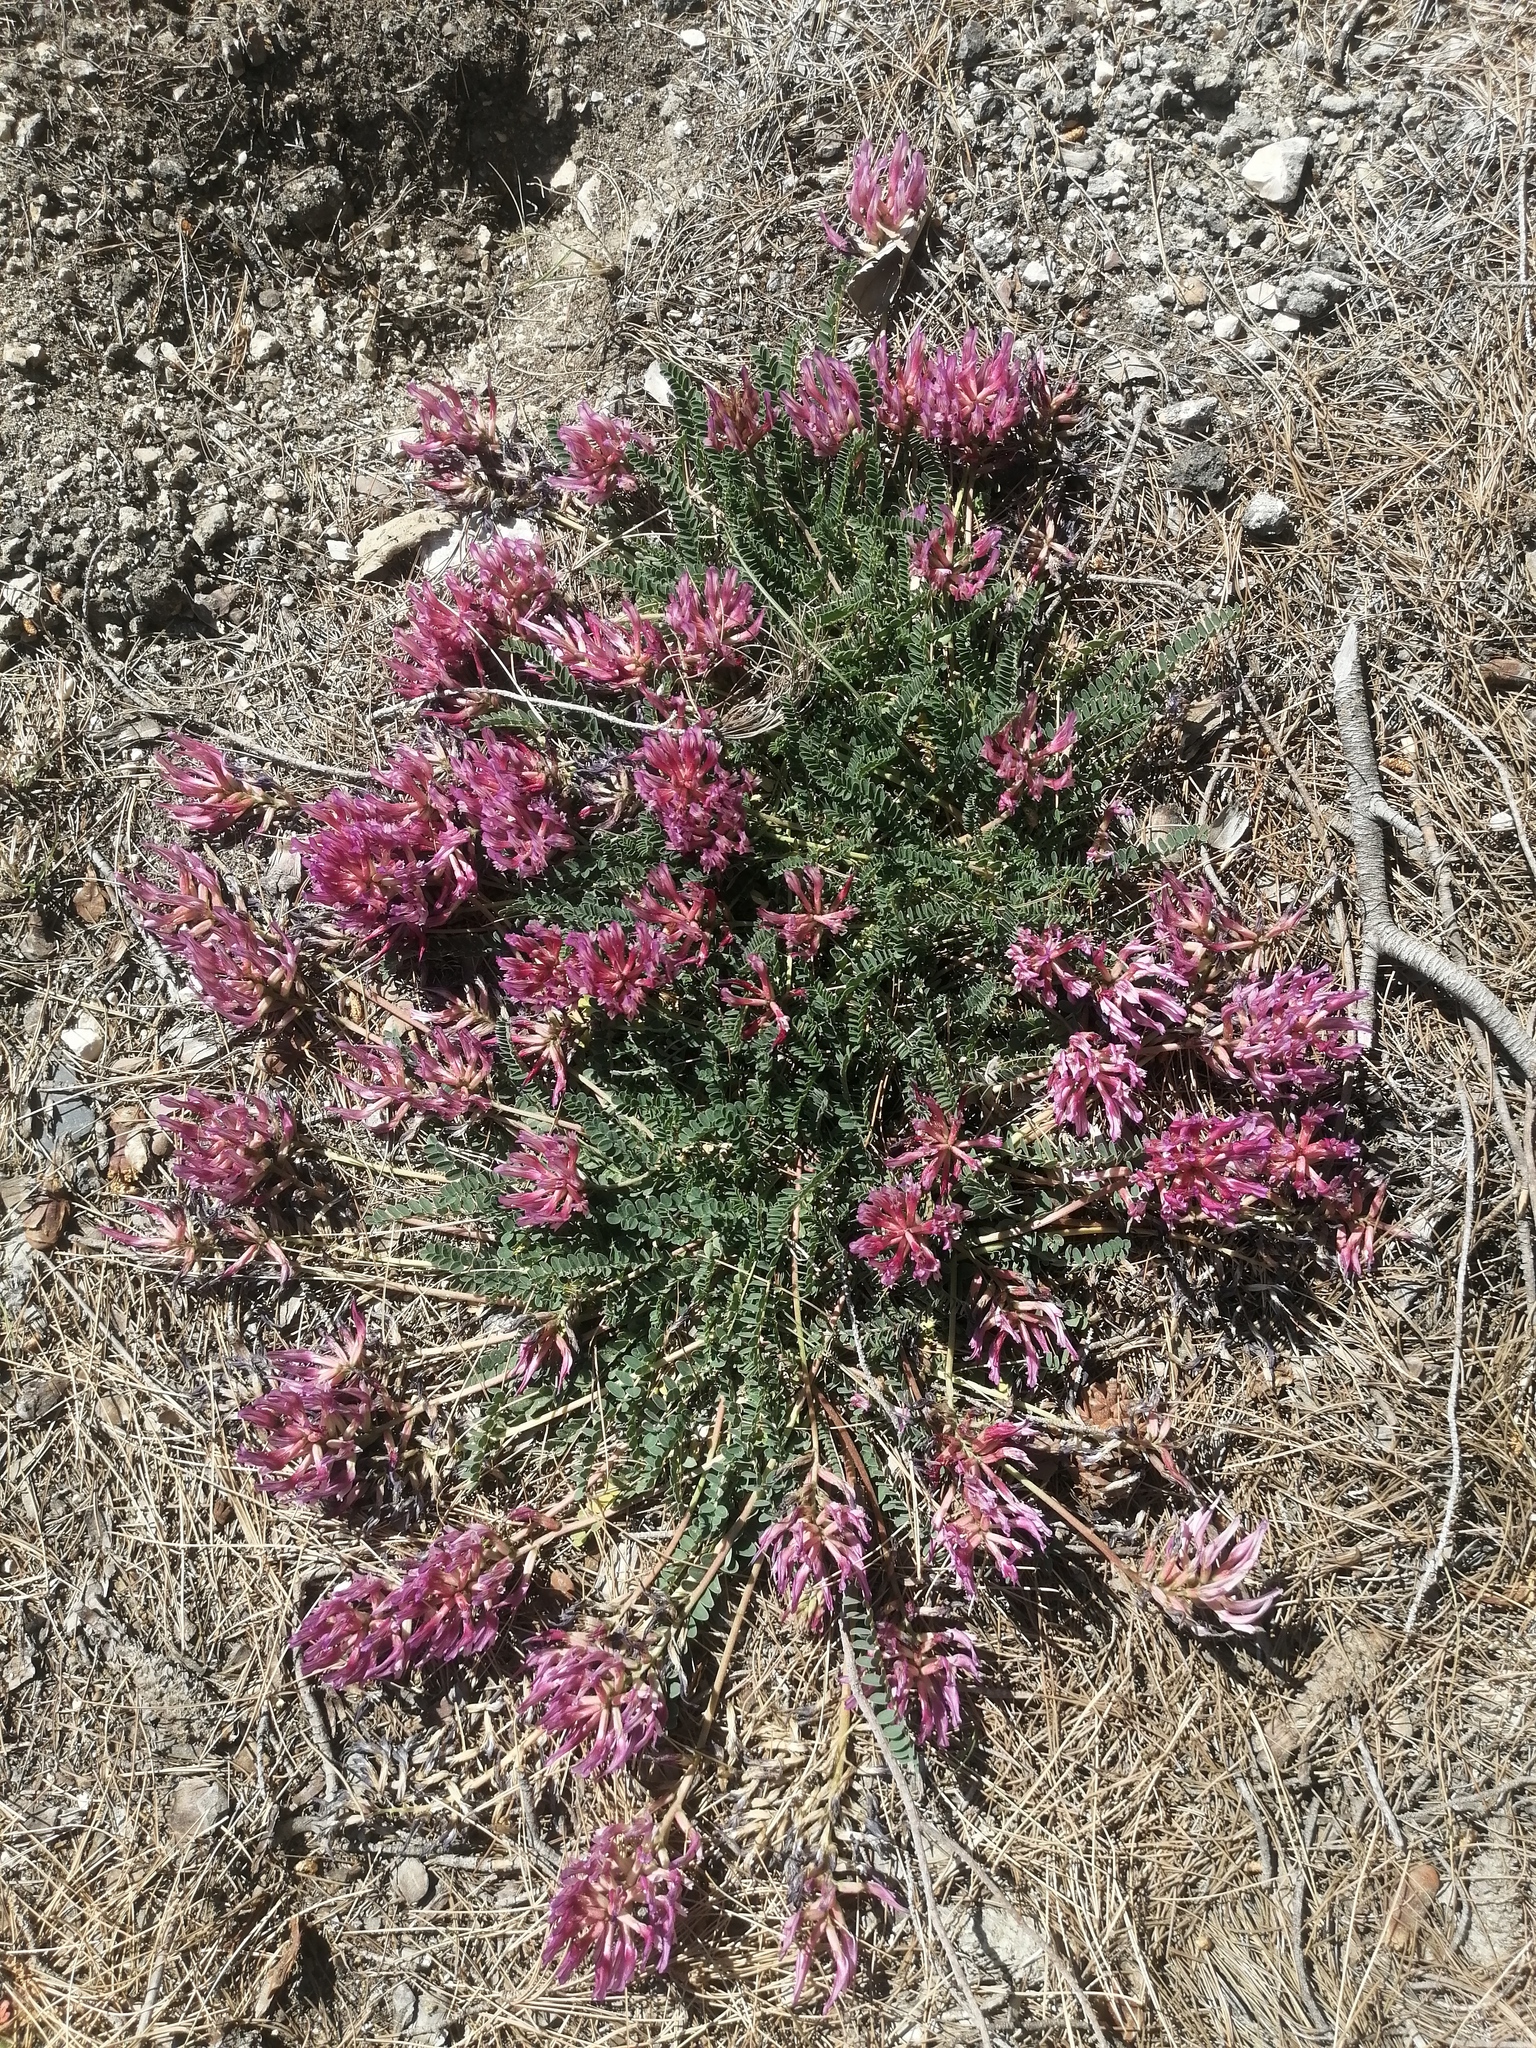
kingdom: Plantae
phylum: Tracheophyta
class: Magnoliopsida
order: Fabales
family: Fabaceae
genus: Astragalus
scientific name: Astragalus monspessulanus
